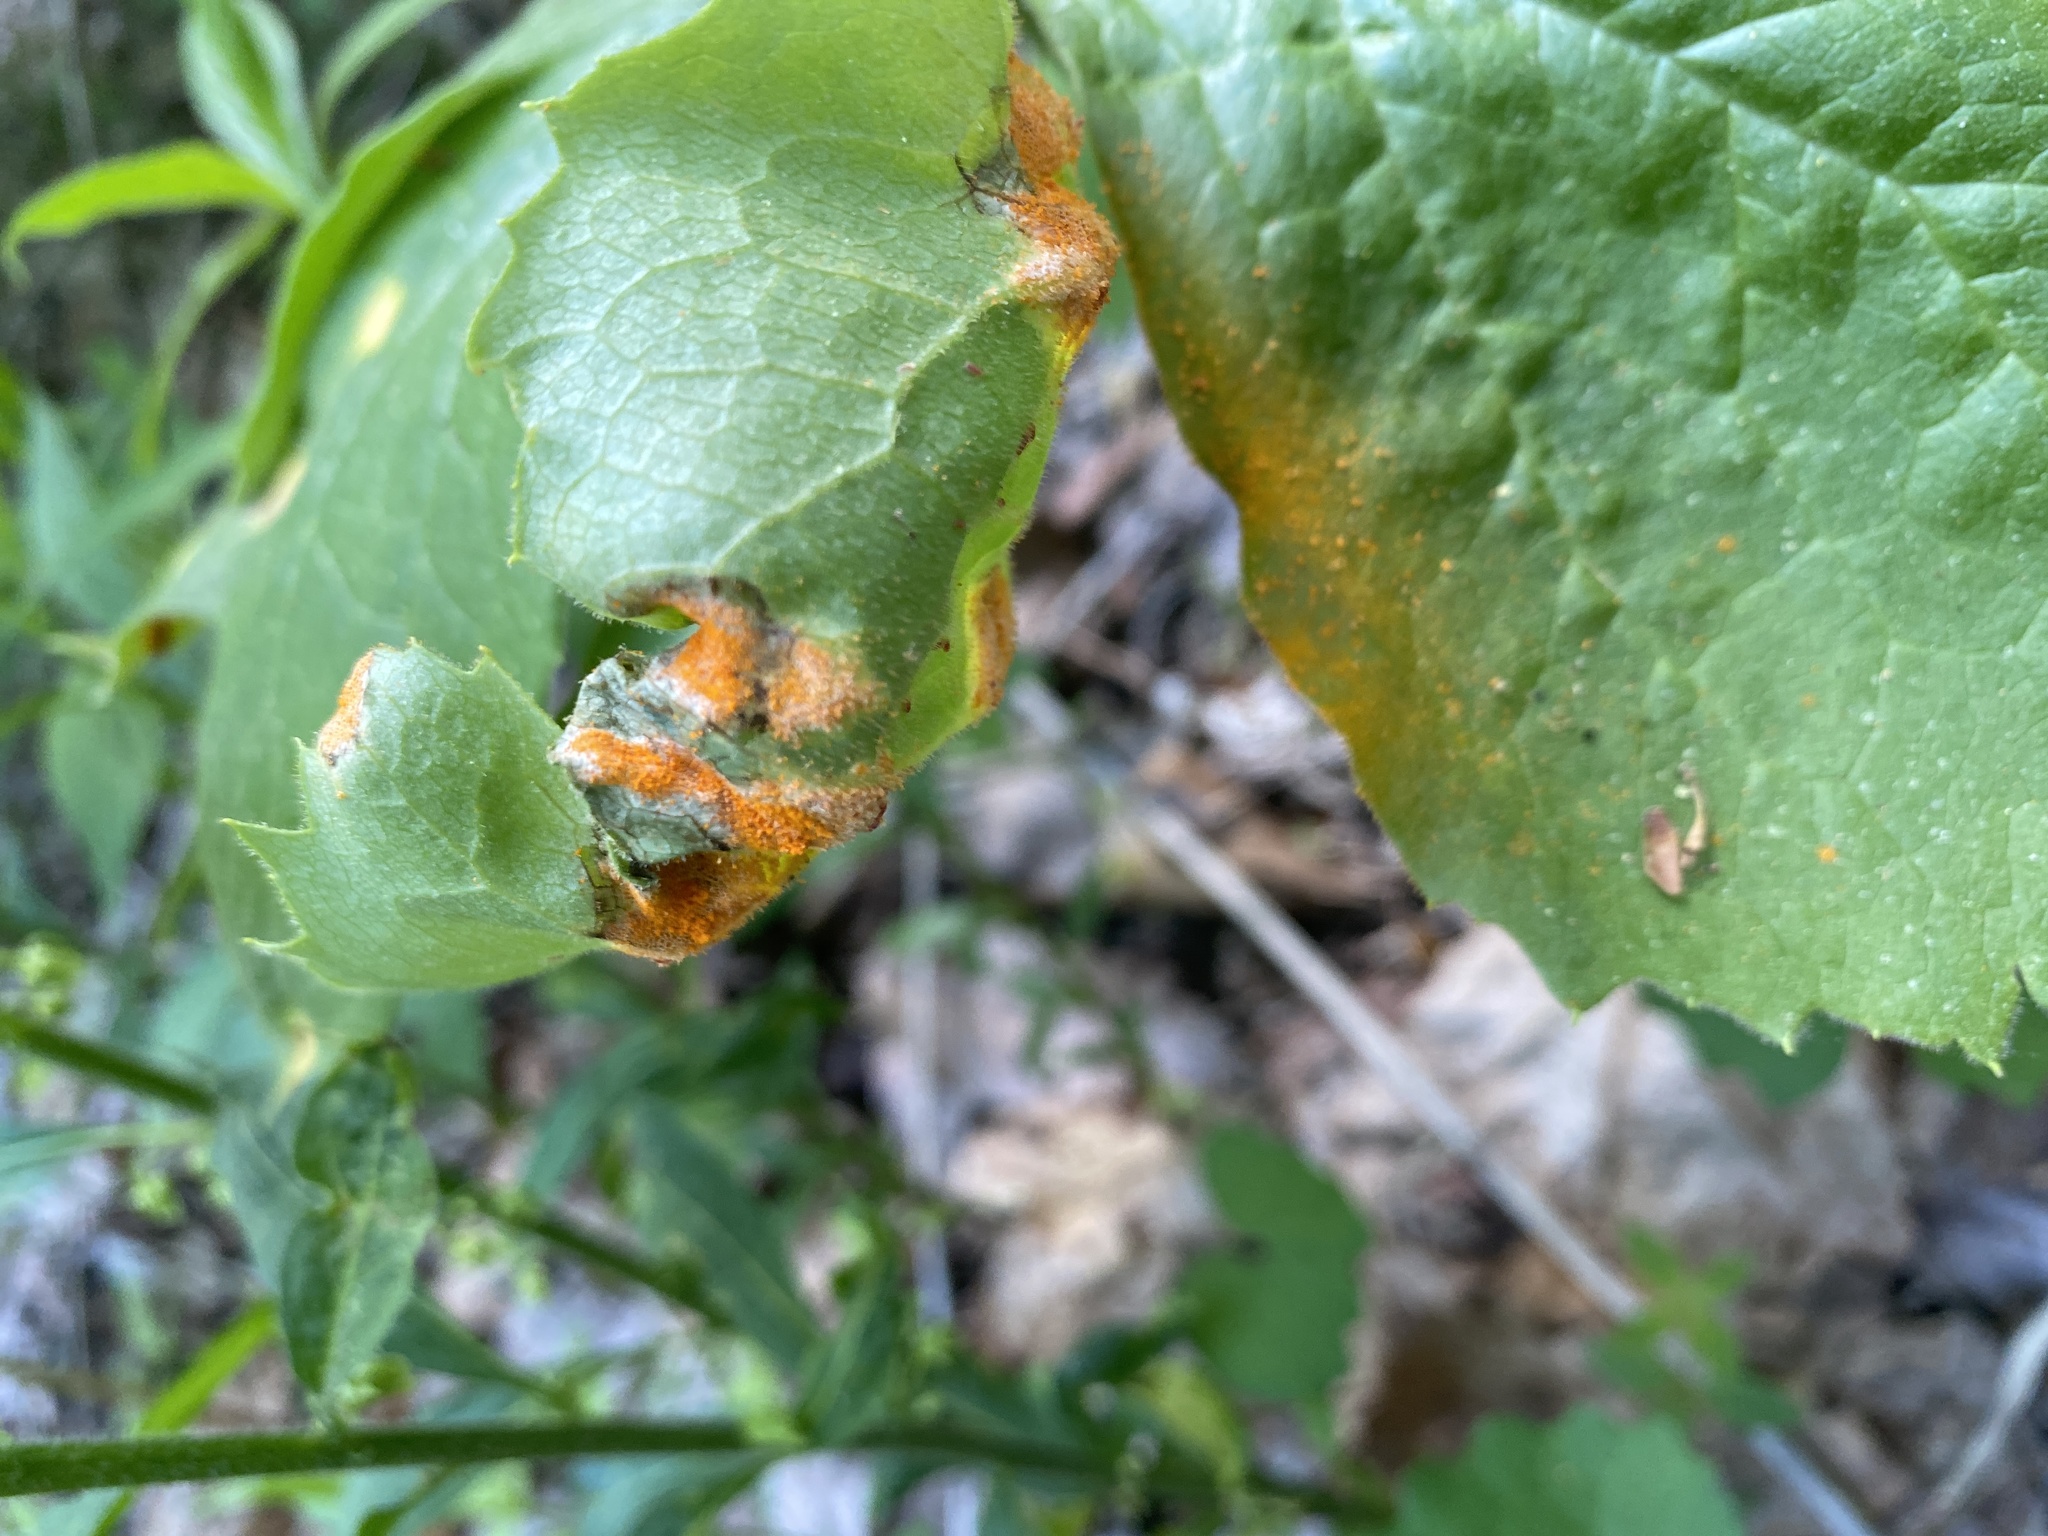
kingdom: Fungi
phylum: Basidiomycota
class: Pucciniomycetes
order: Pucciniales
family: Pucciniaceae
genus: Puccinia
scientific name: Puccinia podophylli
